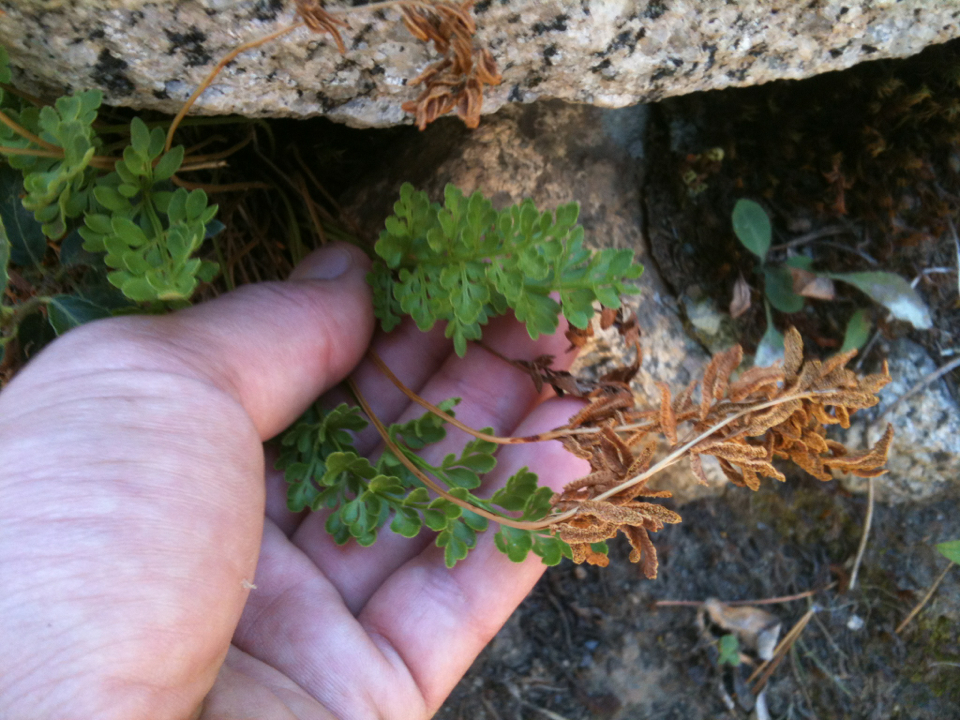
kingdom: Plantae
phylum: Tracheophyta
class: Polypodiopsida
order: Polypodiales
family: Pteridaceae
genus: Cryptogramma
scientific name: Cryptogramma acrostichoides
